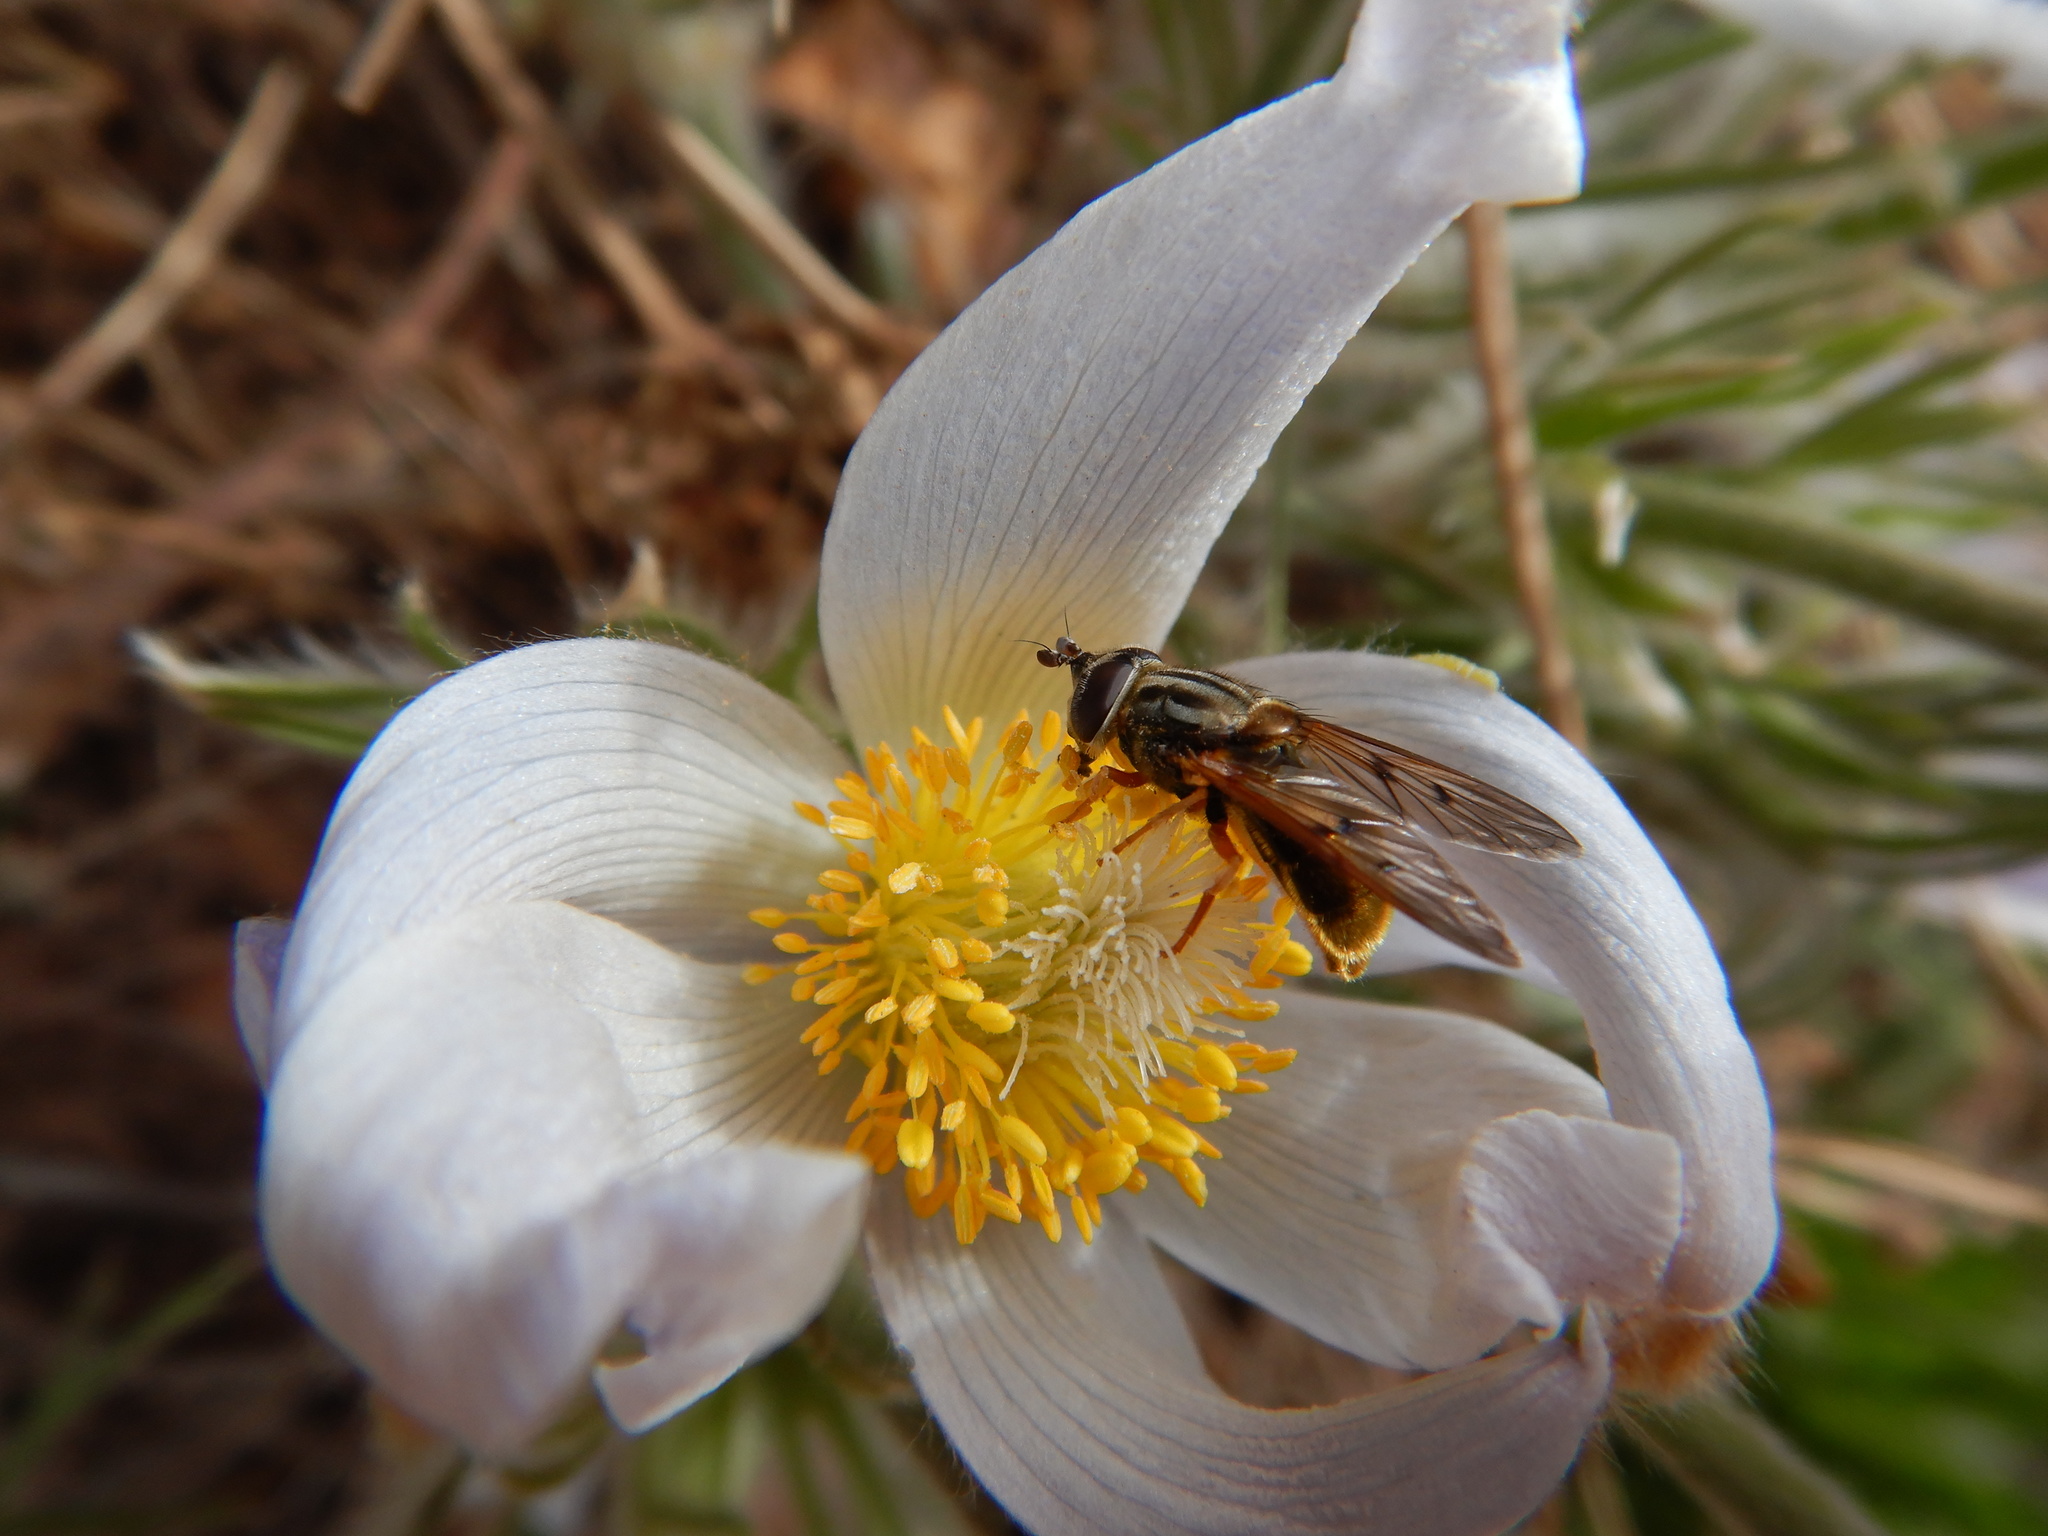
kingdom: Animalia
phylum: Arthropoda
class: Insecta
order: Diptera
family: Syrphidae
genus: Ferdinandea
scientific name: Ferdinandea croesus
